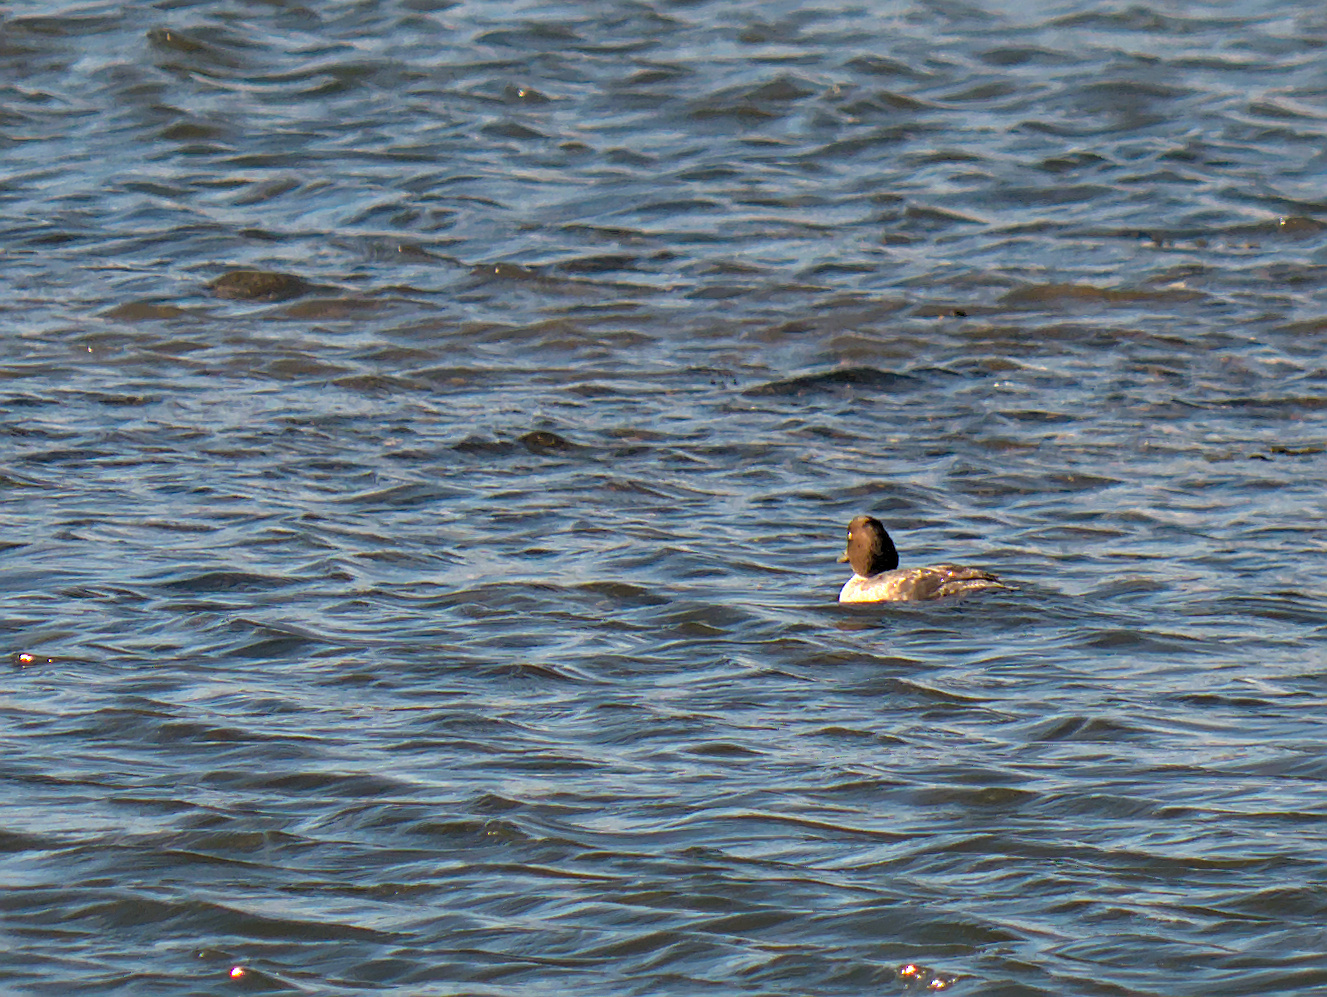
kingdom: Animalia
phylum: Chordata
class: Aves
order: Anseriformes
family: Anatidae
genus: Bucephala
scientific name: Bucephala clangula
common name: Common goldeneye
